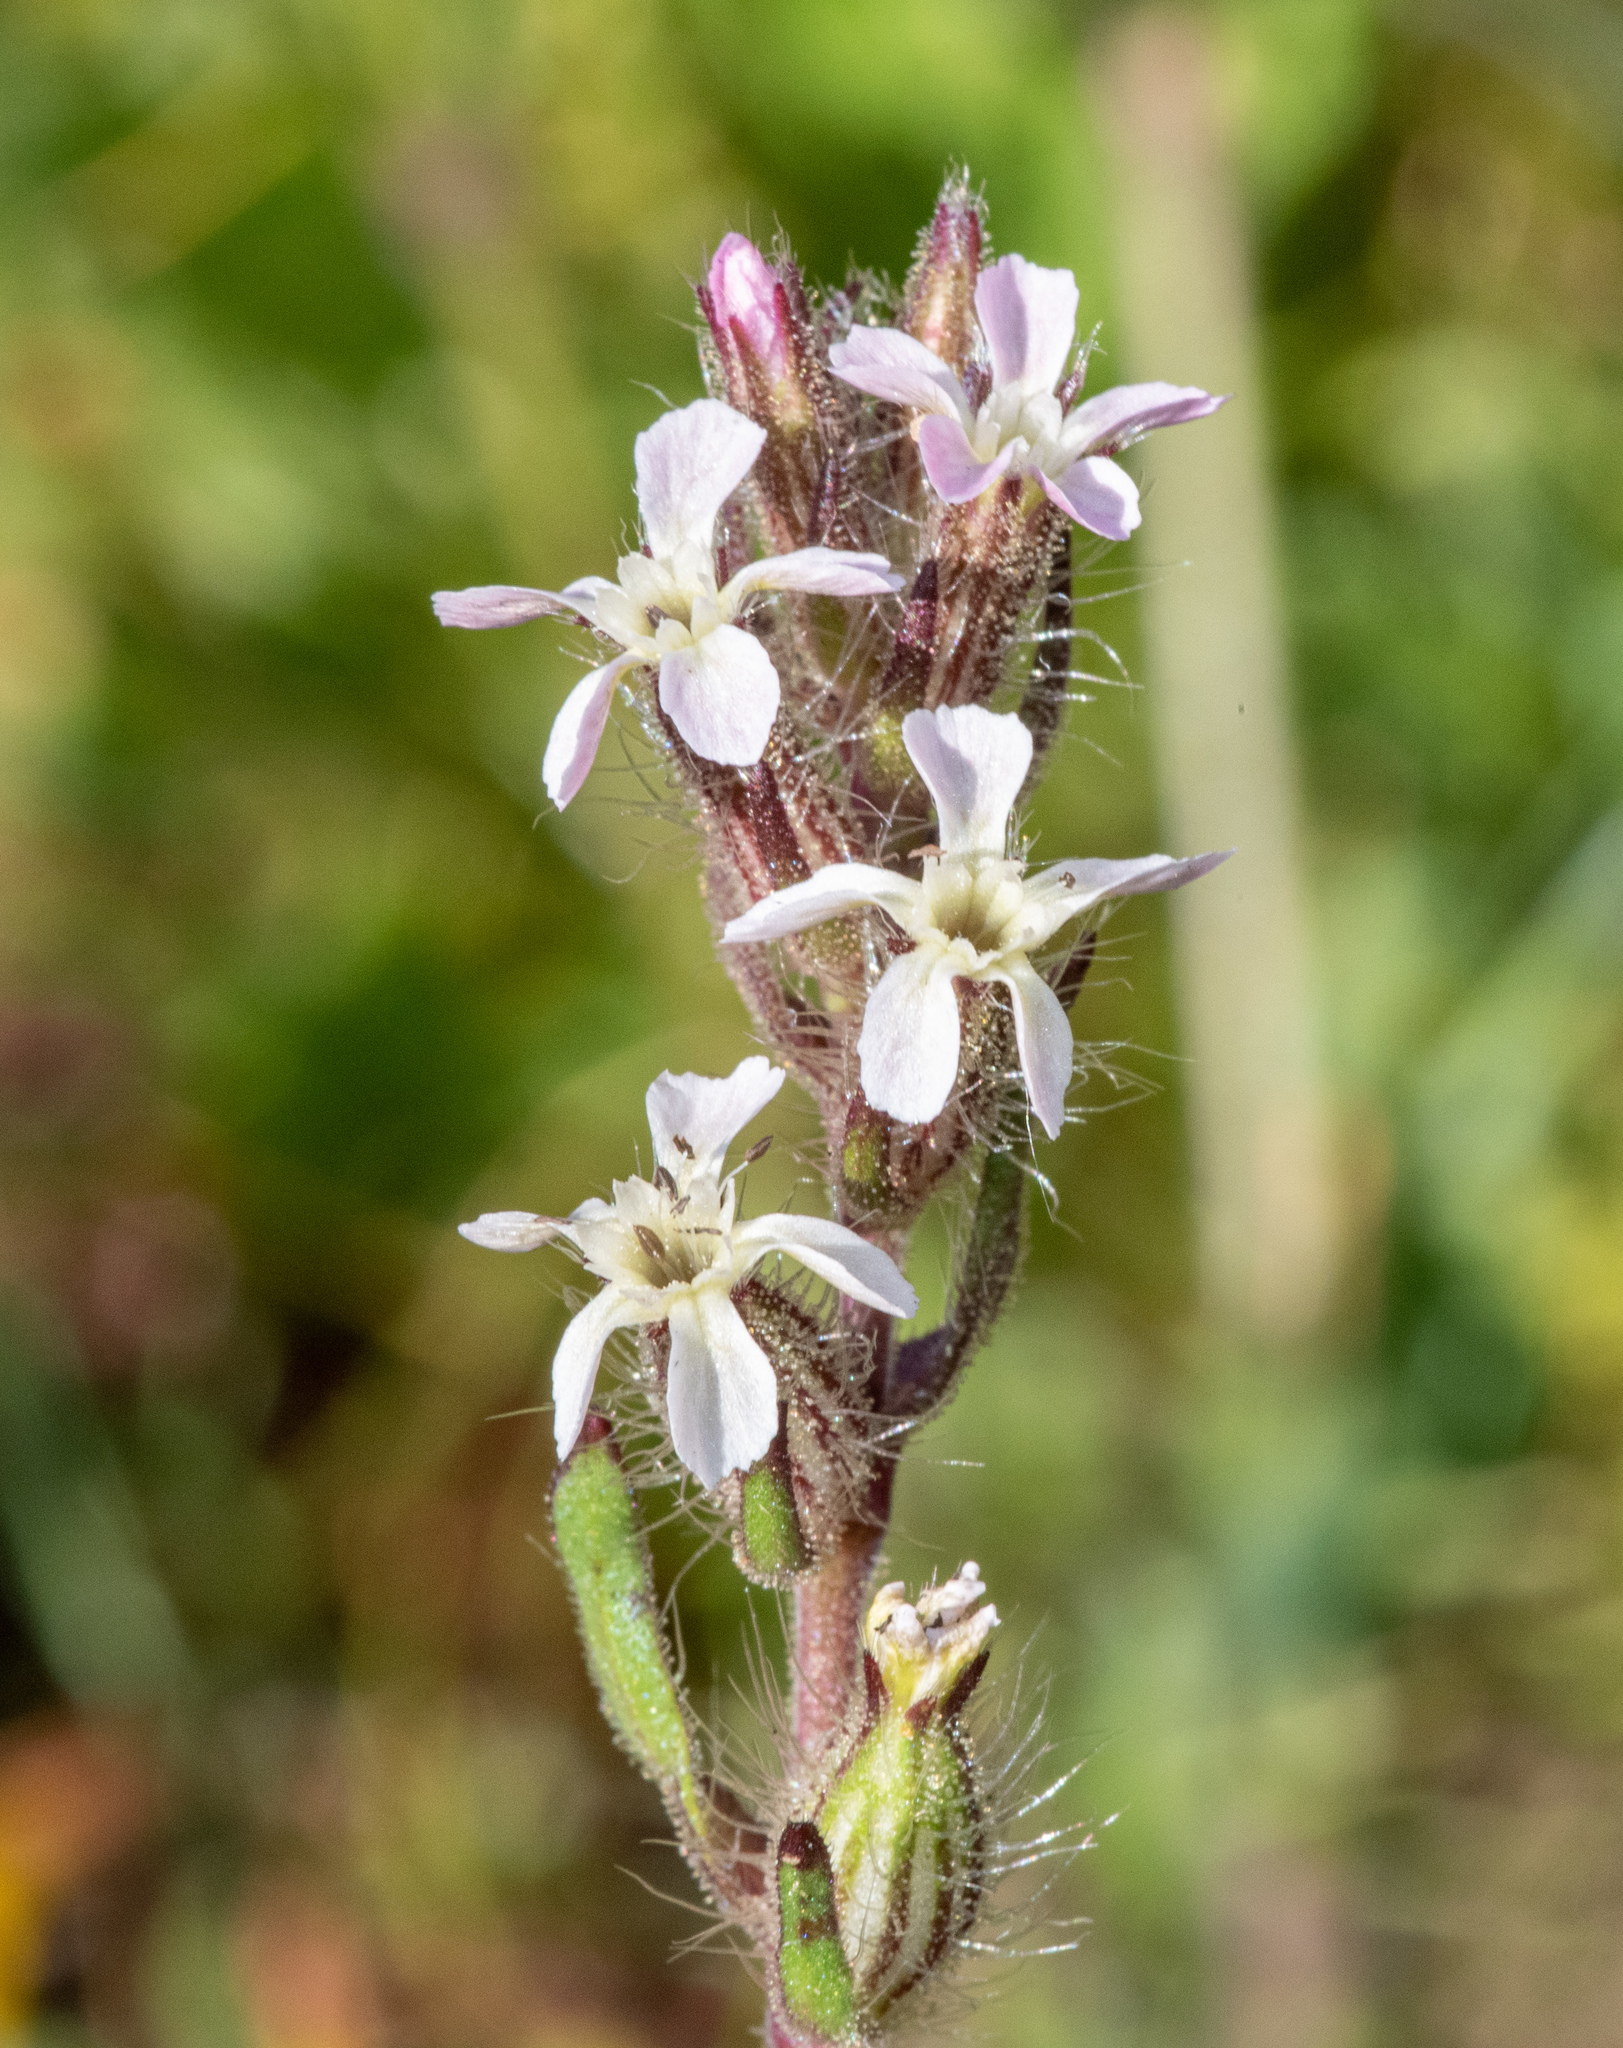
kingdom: Plantae
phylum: Tracheophyta
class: Magnoliopsida
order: Caryophyllales
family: Caryophyllaceae
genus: Silene
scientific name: Silene gallica
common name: Small-flowered catchfly
